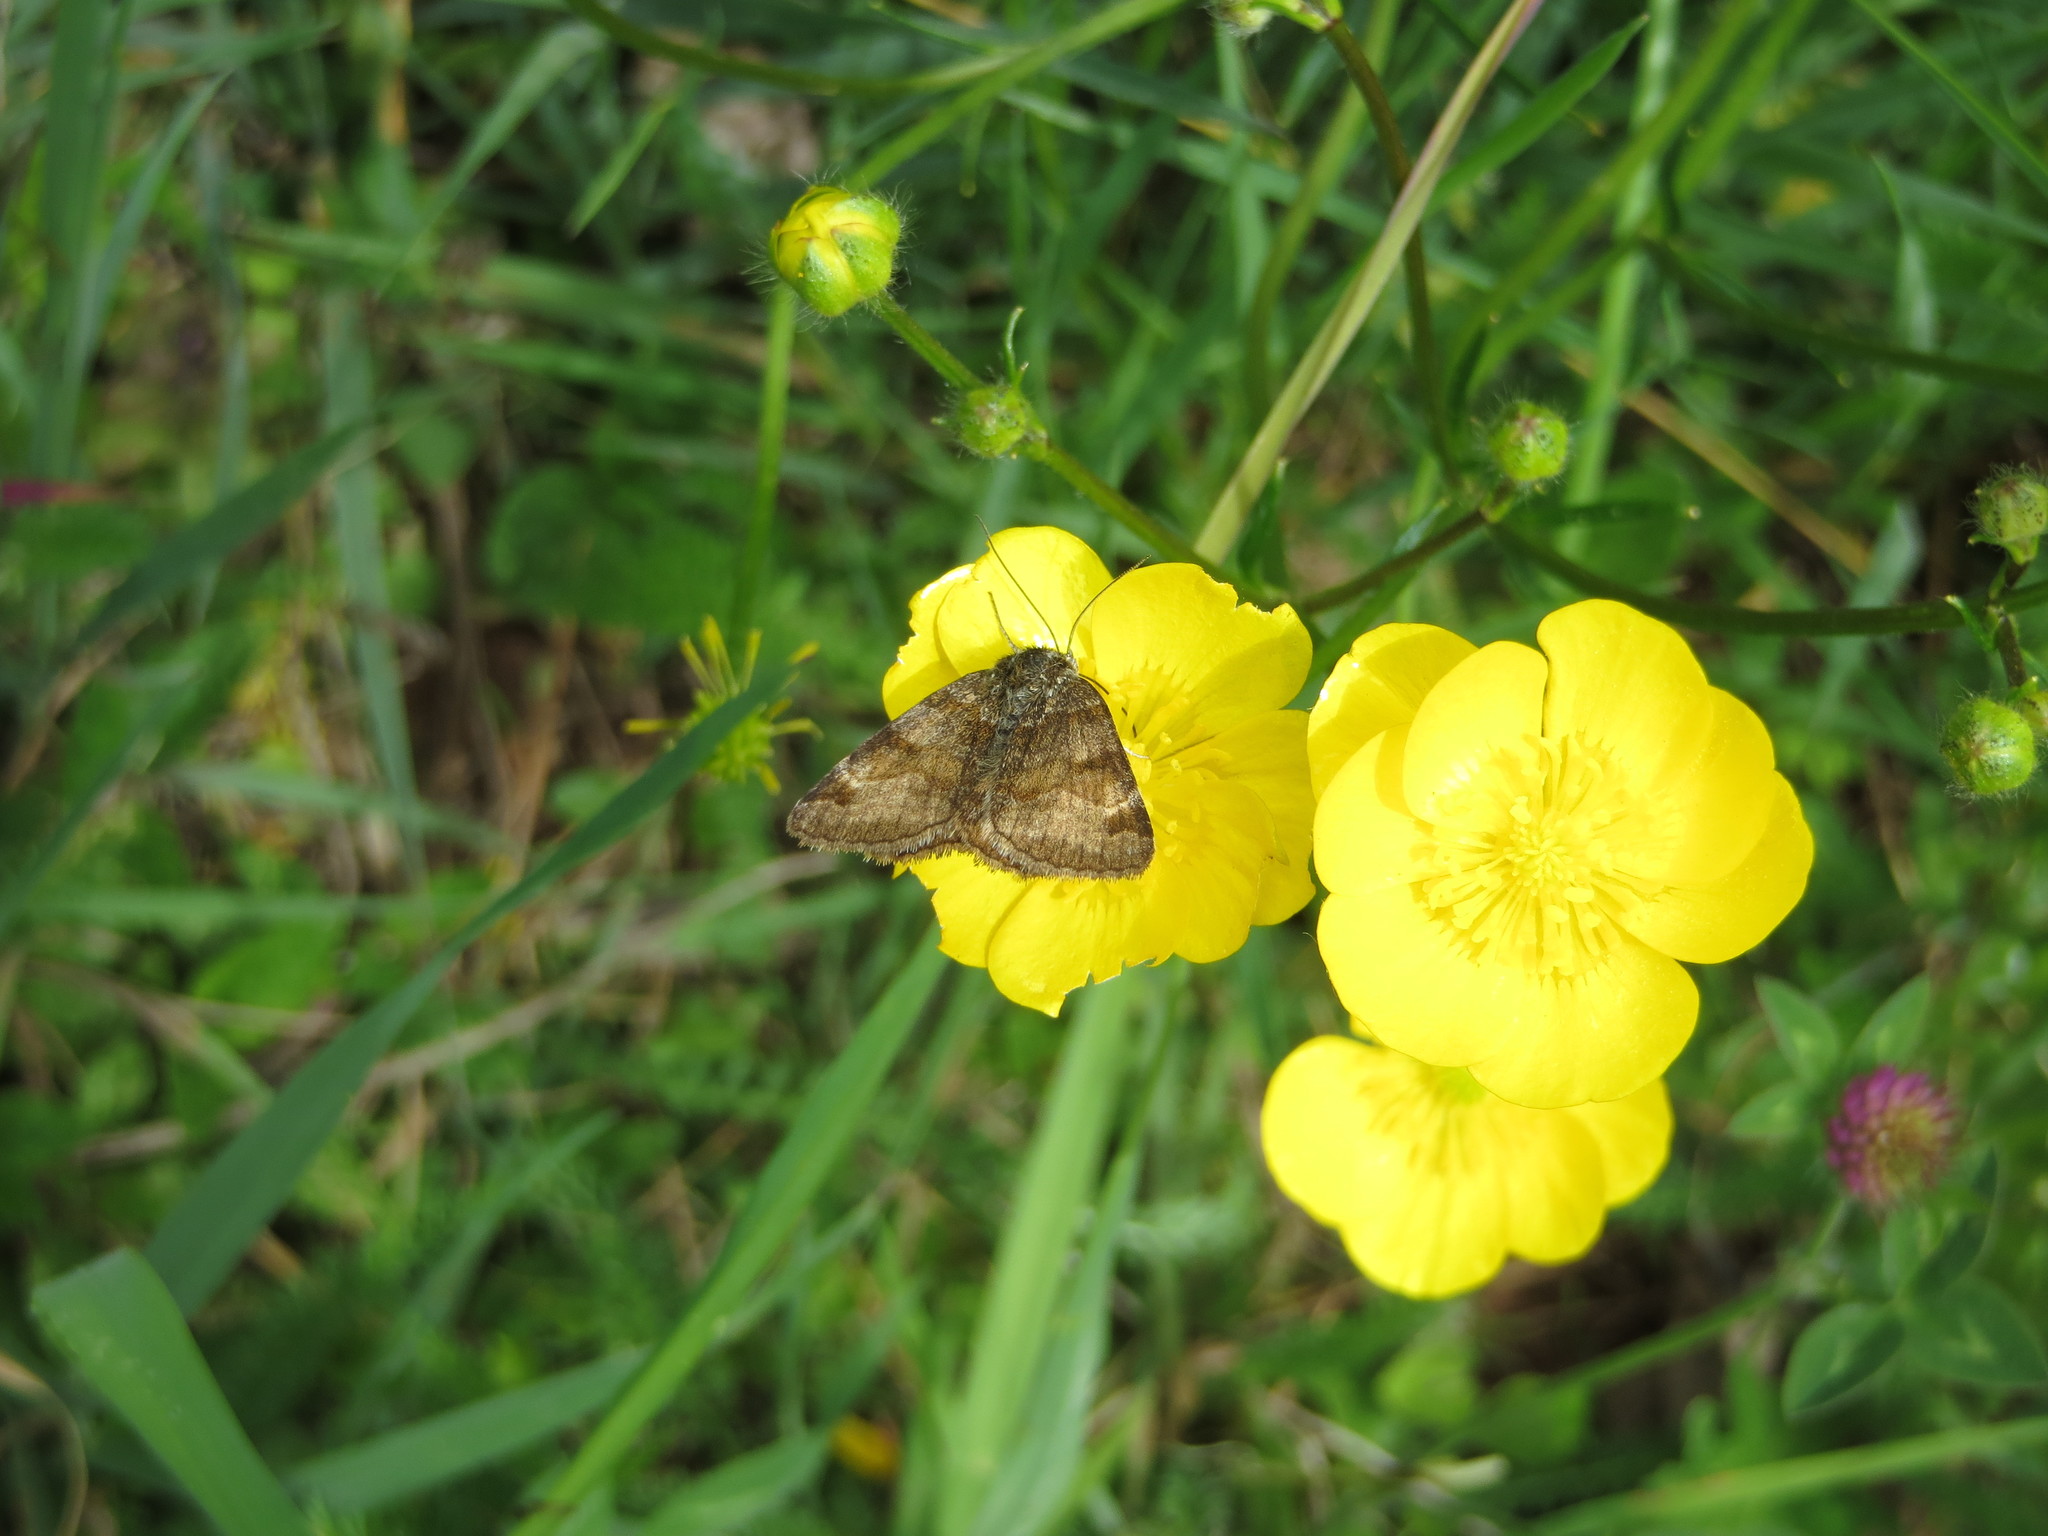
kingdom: Animalia
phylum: Arthropoda
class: Insecta
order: Lepidoptera
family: Erebidae
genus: Euclidia
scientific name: Euclidia glyphica
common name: Burnet companion
